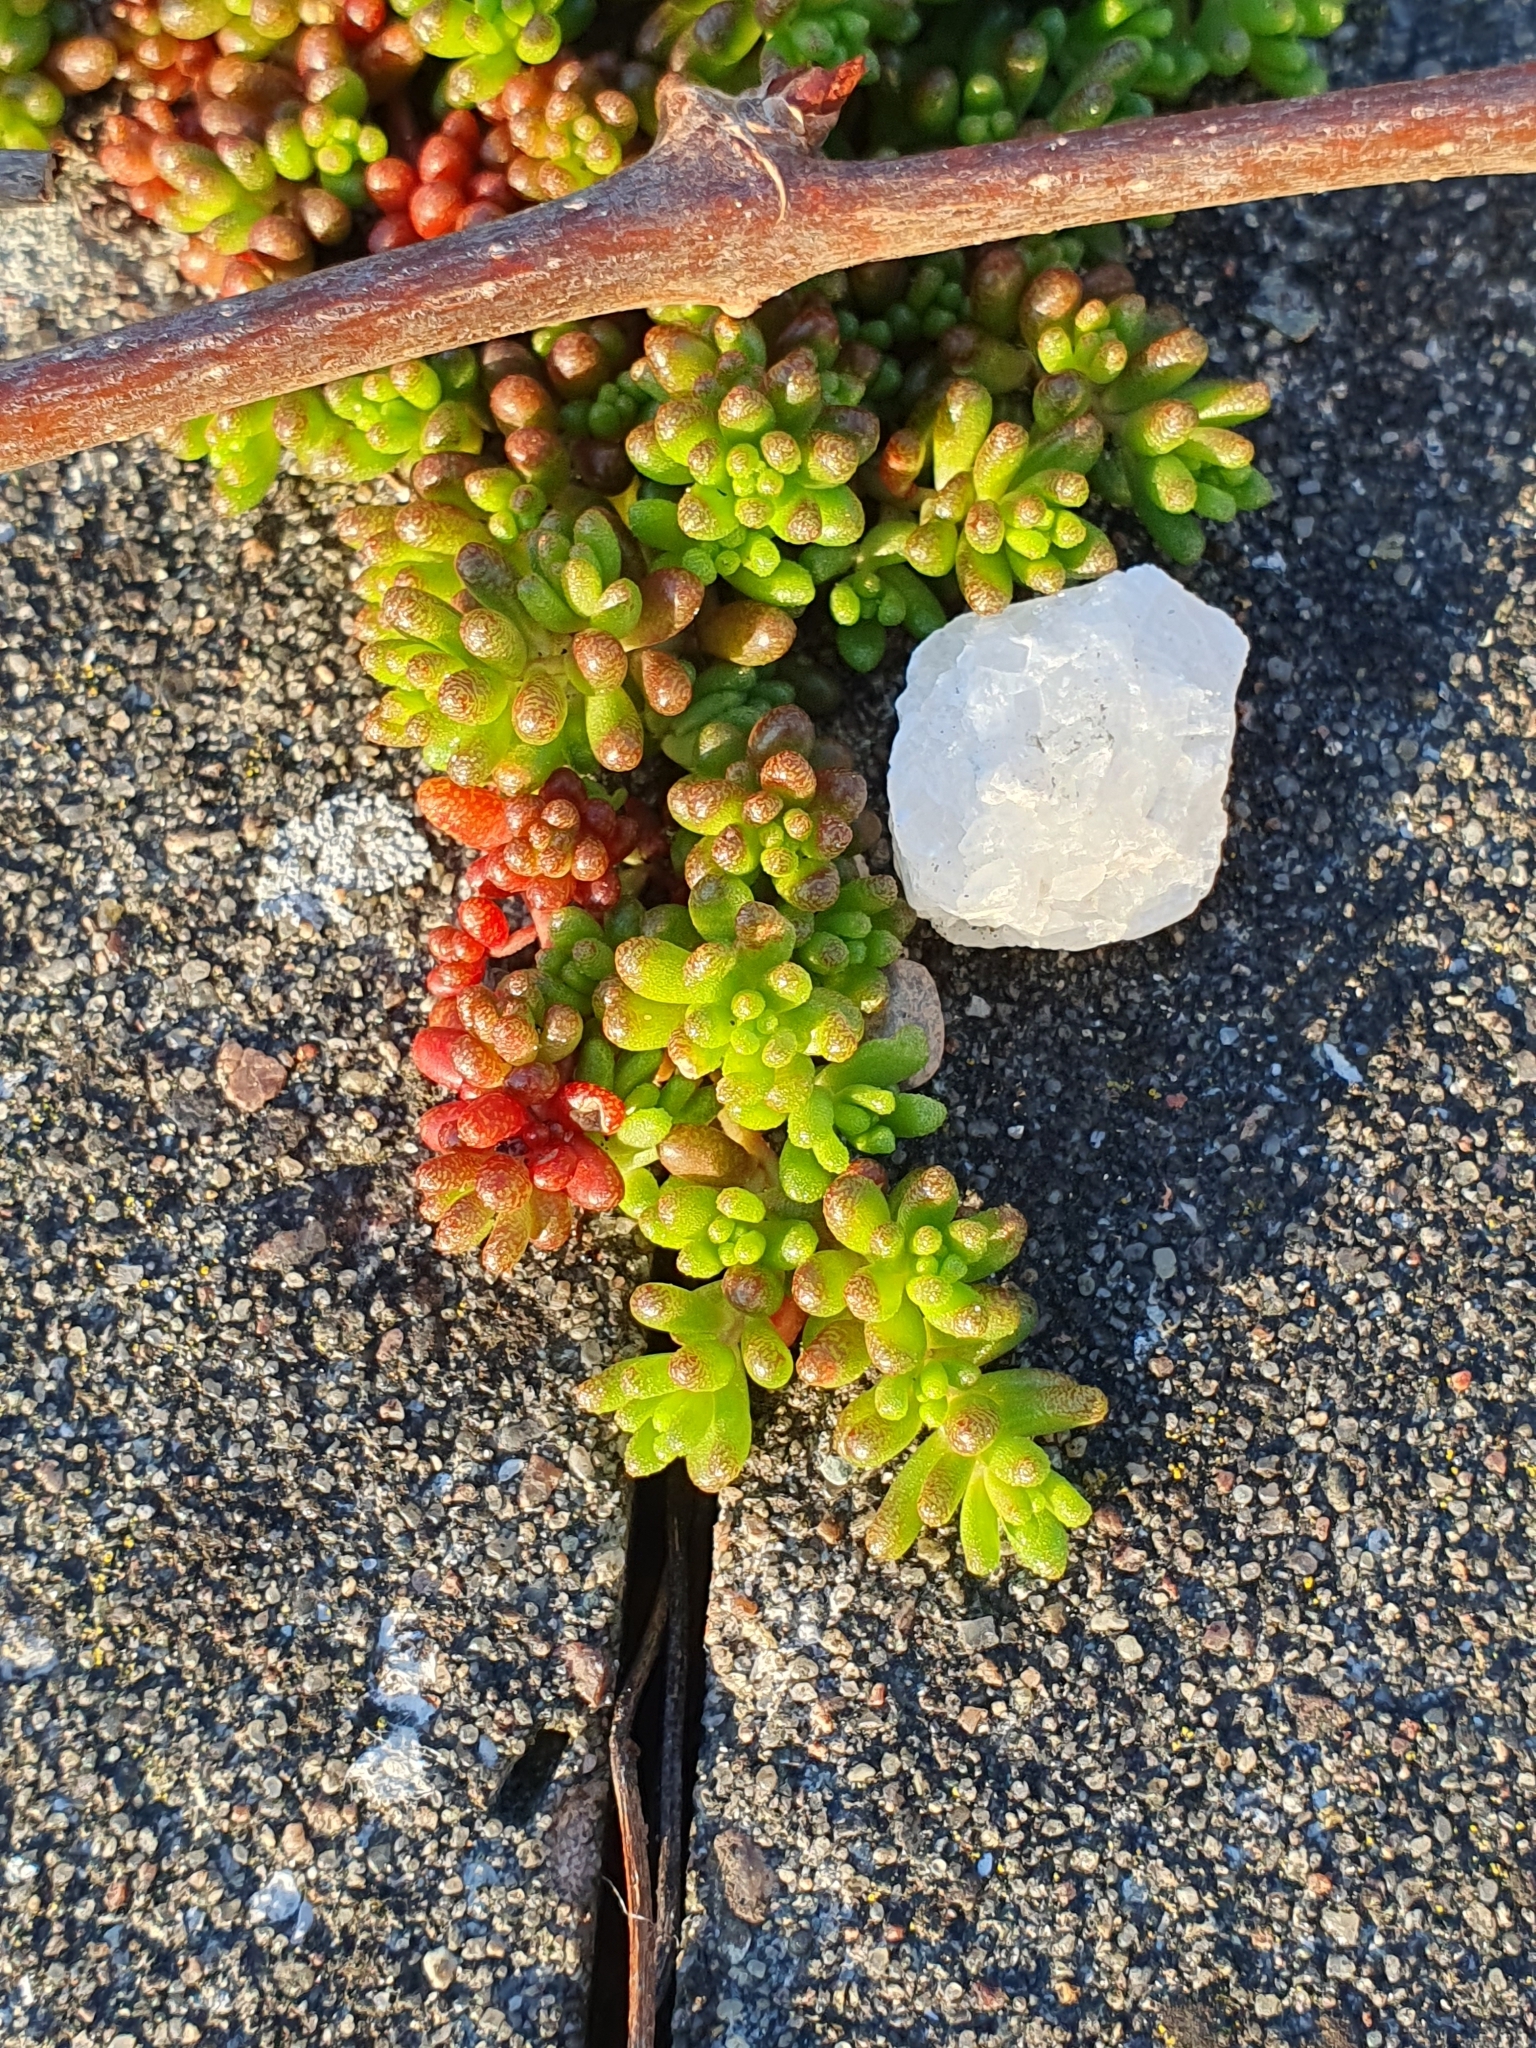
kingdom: Plantae
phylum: Tracheophyta
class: Magnoliopsida
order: Saxifragales
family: Crassulaceae
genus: Sedum
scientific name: Sedum album
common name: White stonecrop
